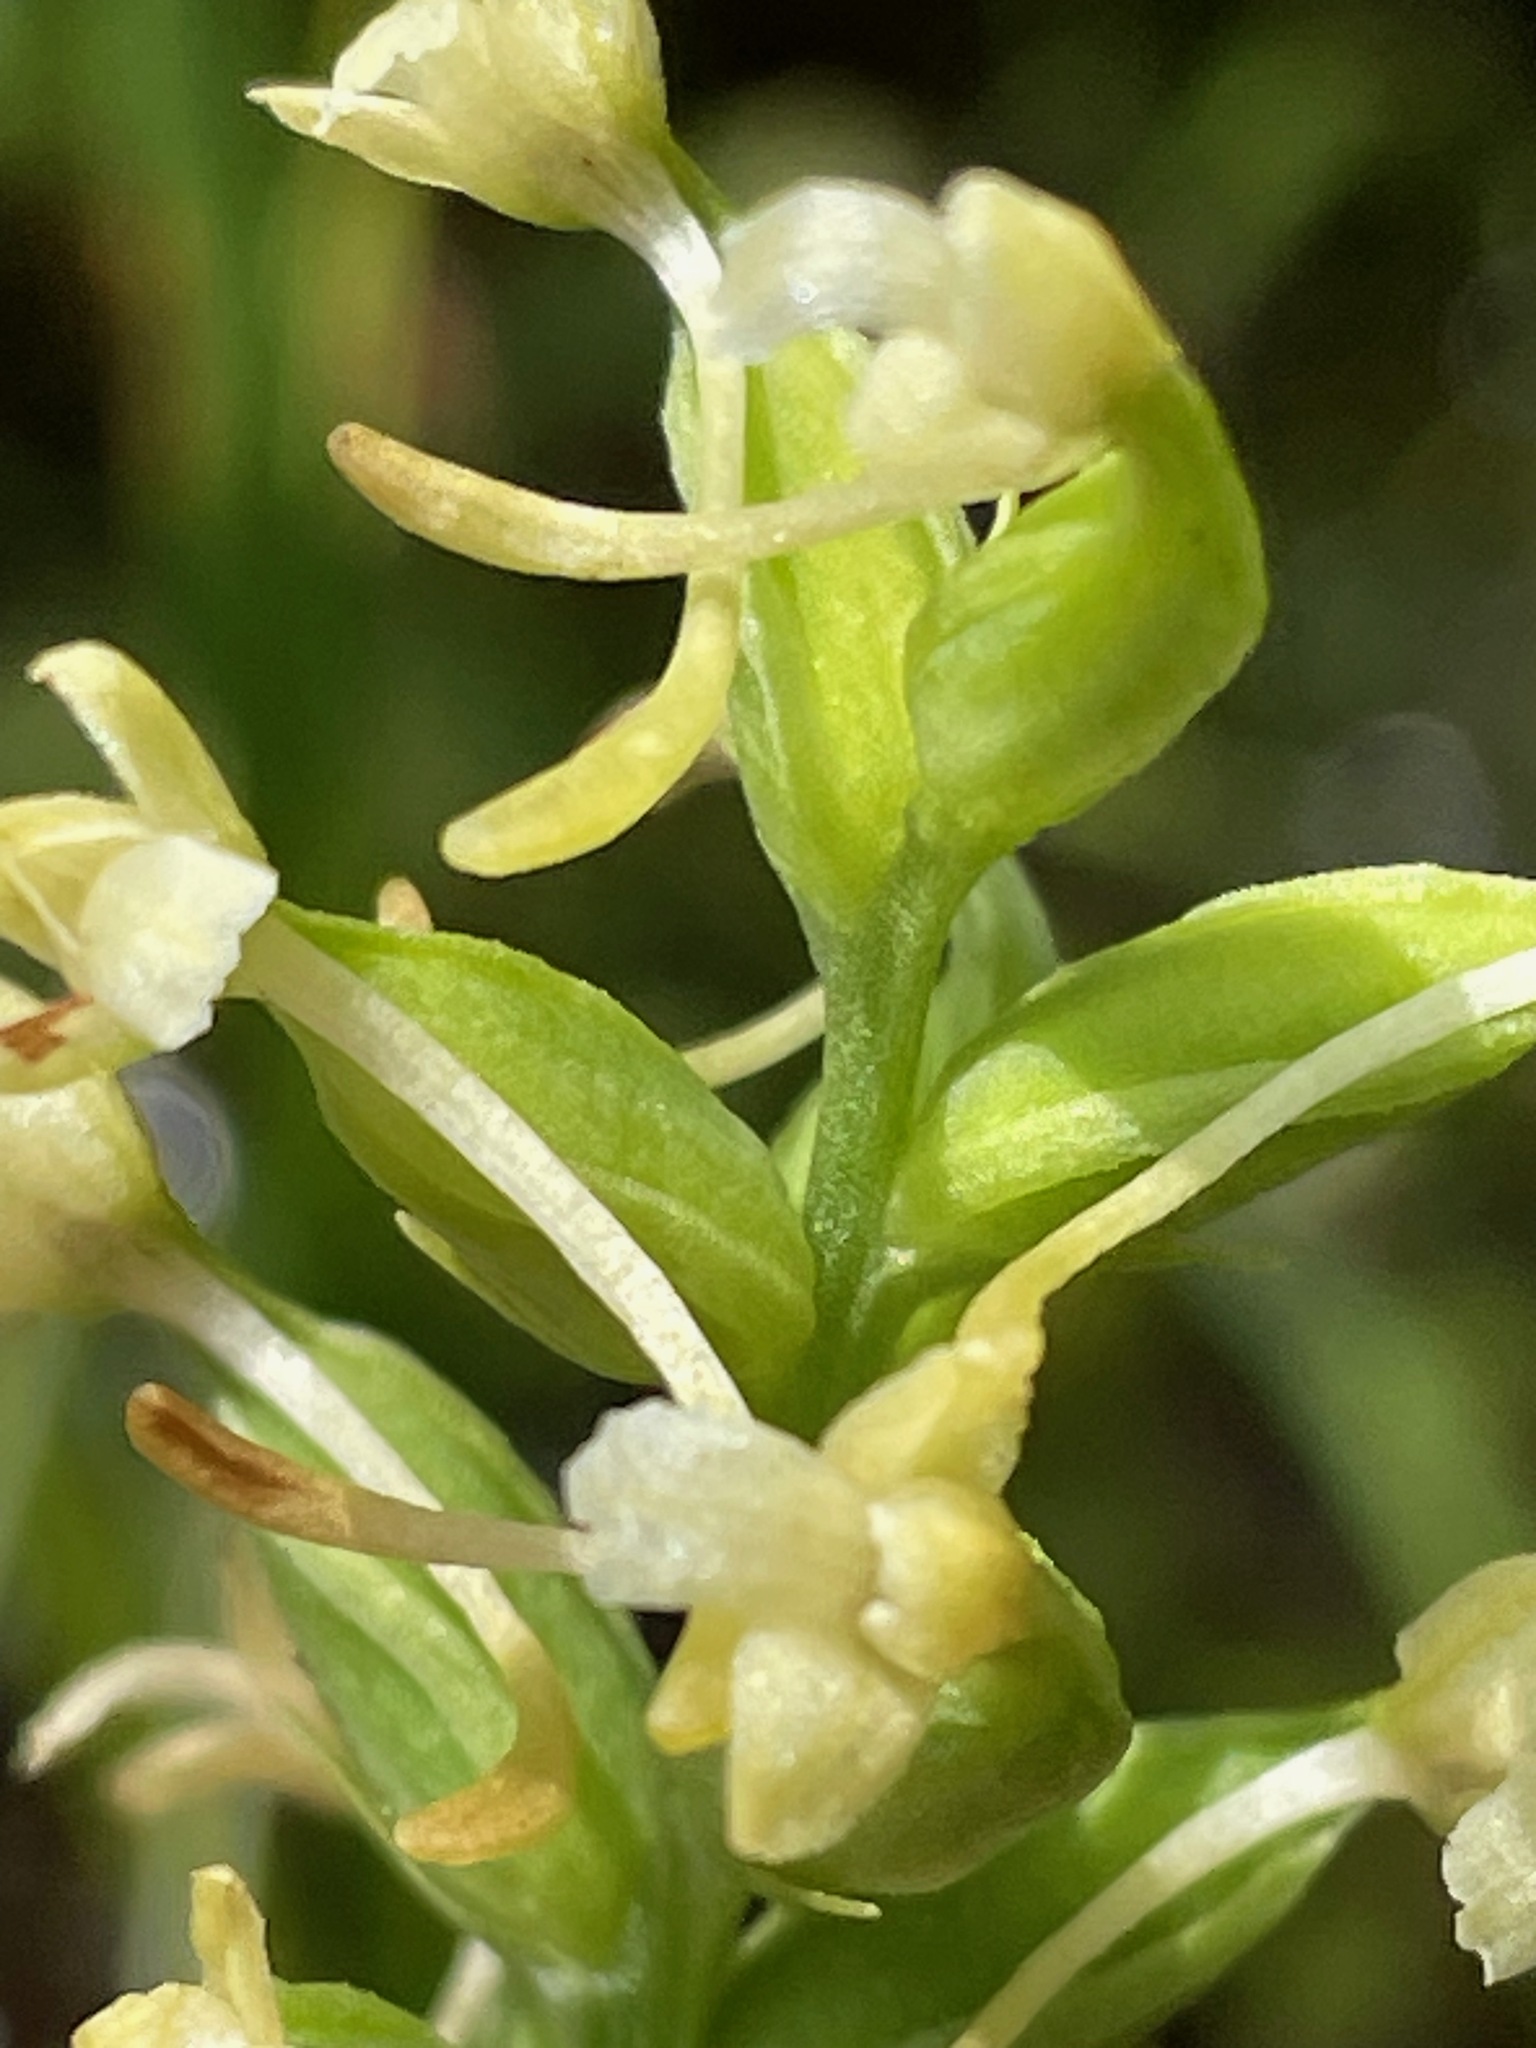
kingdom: Plantae
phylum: Tracheophyta
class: Liliopsida
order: Asparagales
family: Orchidaceae
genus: Platanthera
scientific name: Platanthera clavellata
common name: Club-spur orchid
